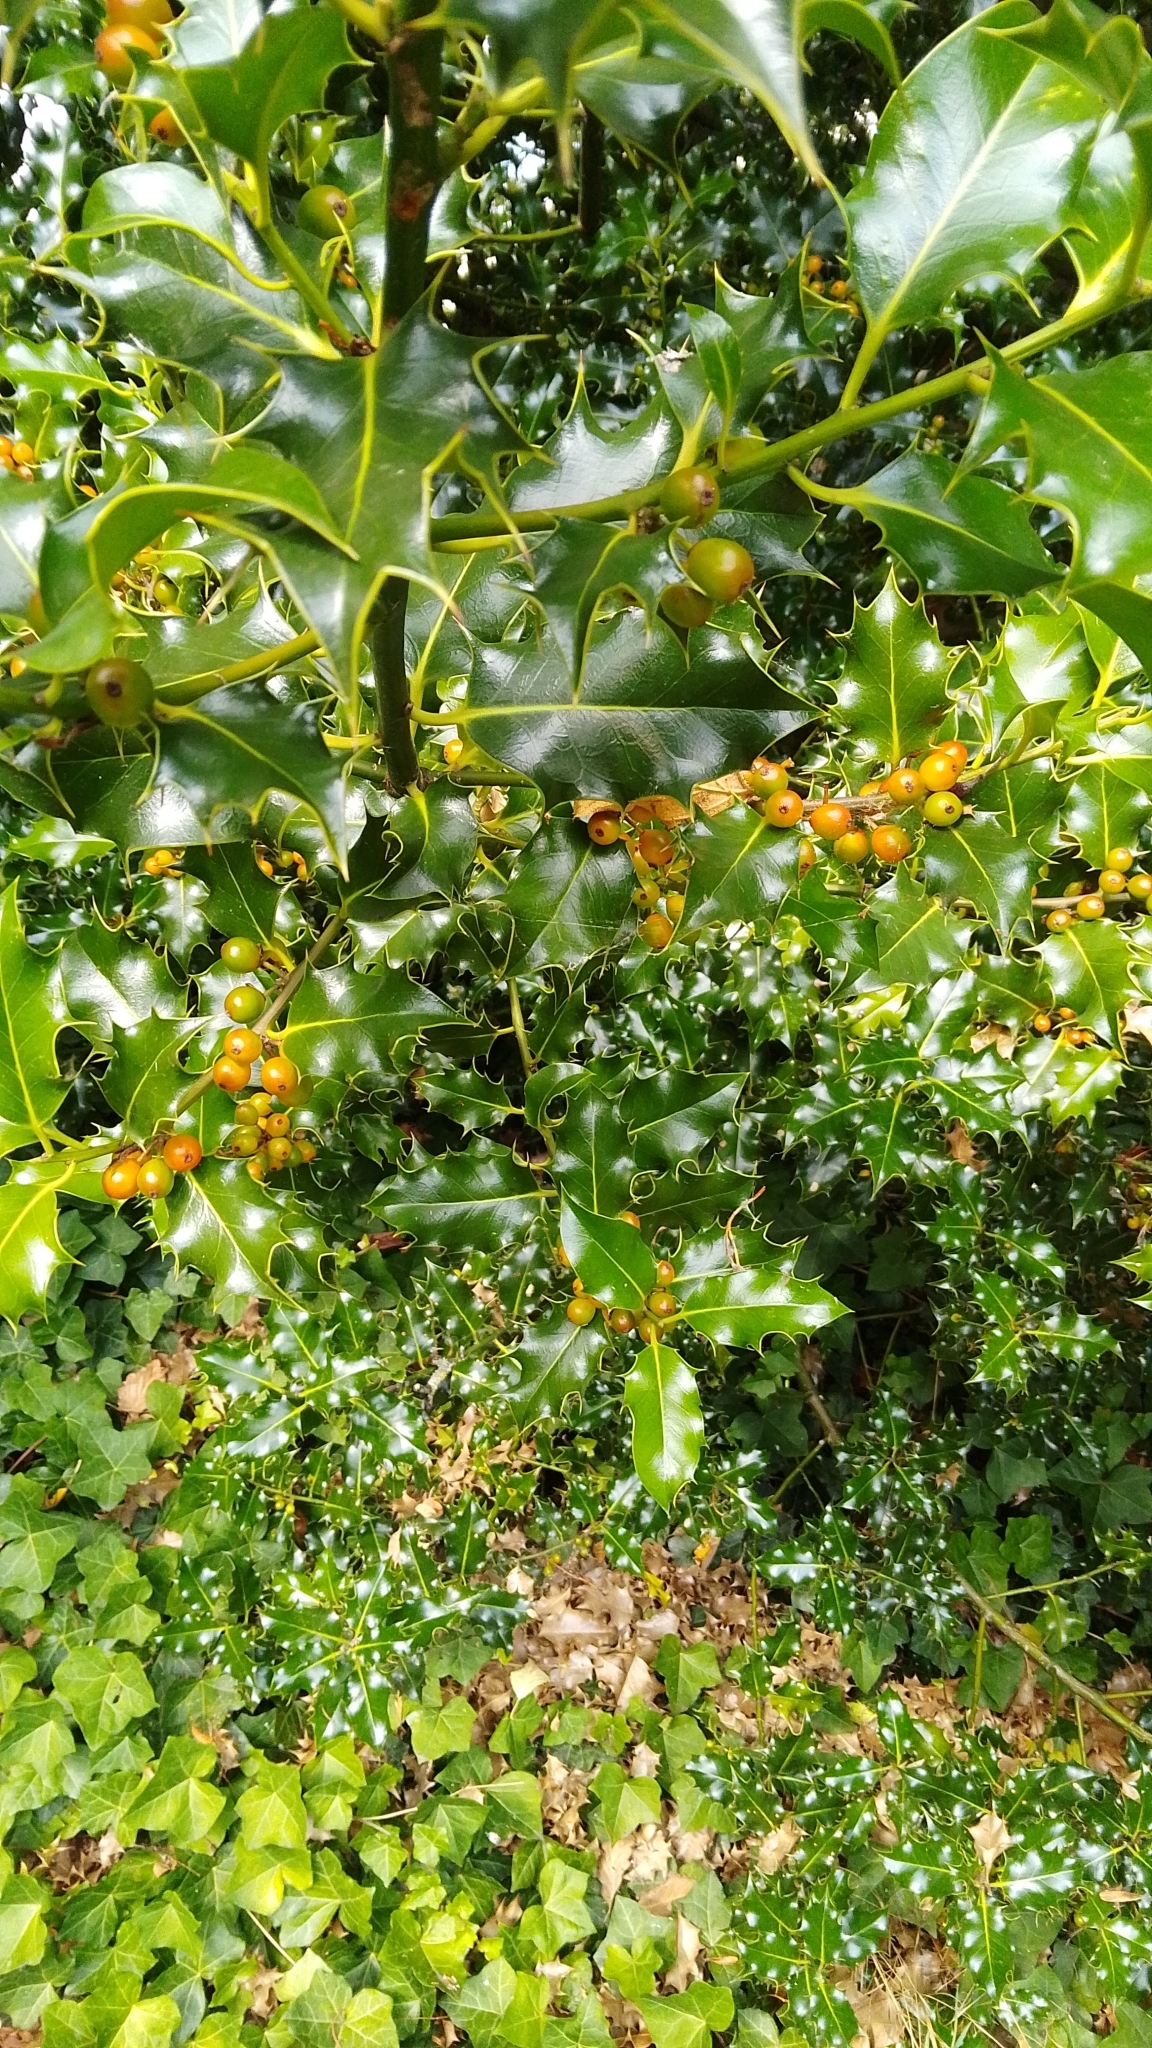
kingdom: Plantae
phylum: Tracheophyta
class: Magnoliopsida
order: Aquifoliales
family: Aquifoliaceae
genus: Ilex
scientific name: Ilex aquifolium
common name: English holly
